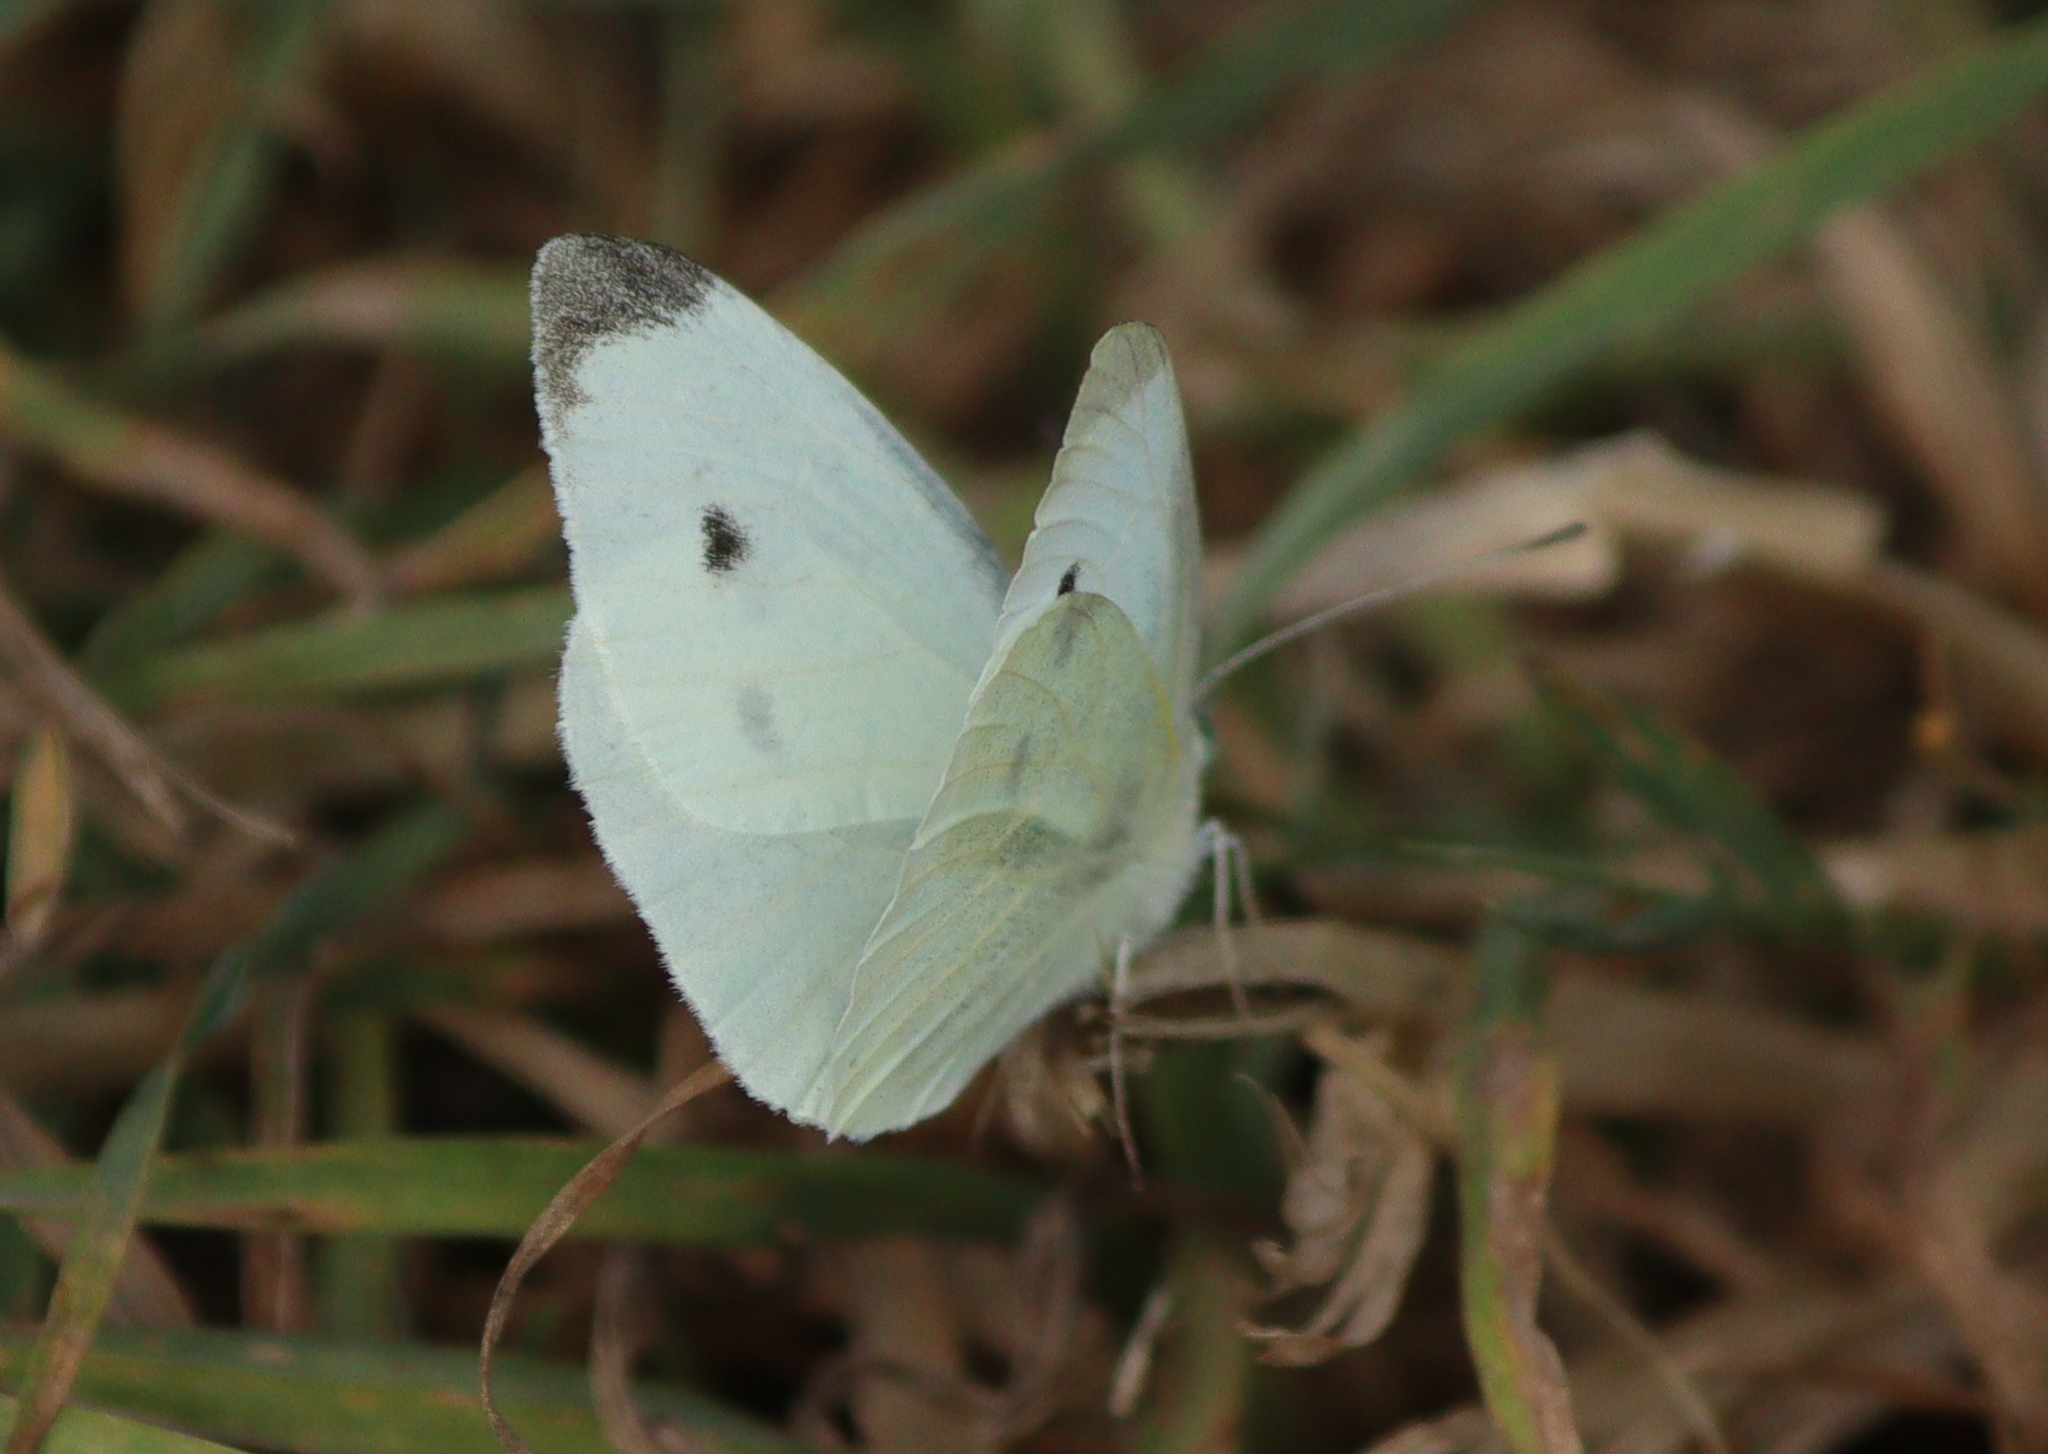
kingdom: Animalia
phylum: Arthropoda
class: Insecta
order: Lepidoptera
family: Pieridae
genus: Pieris
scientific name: Pieris rapae
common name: Small white
